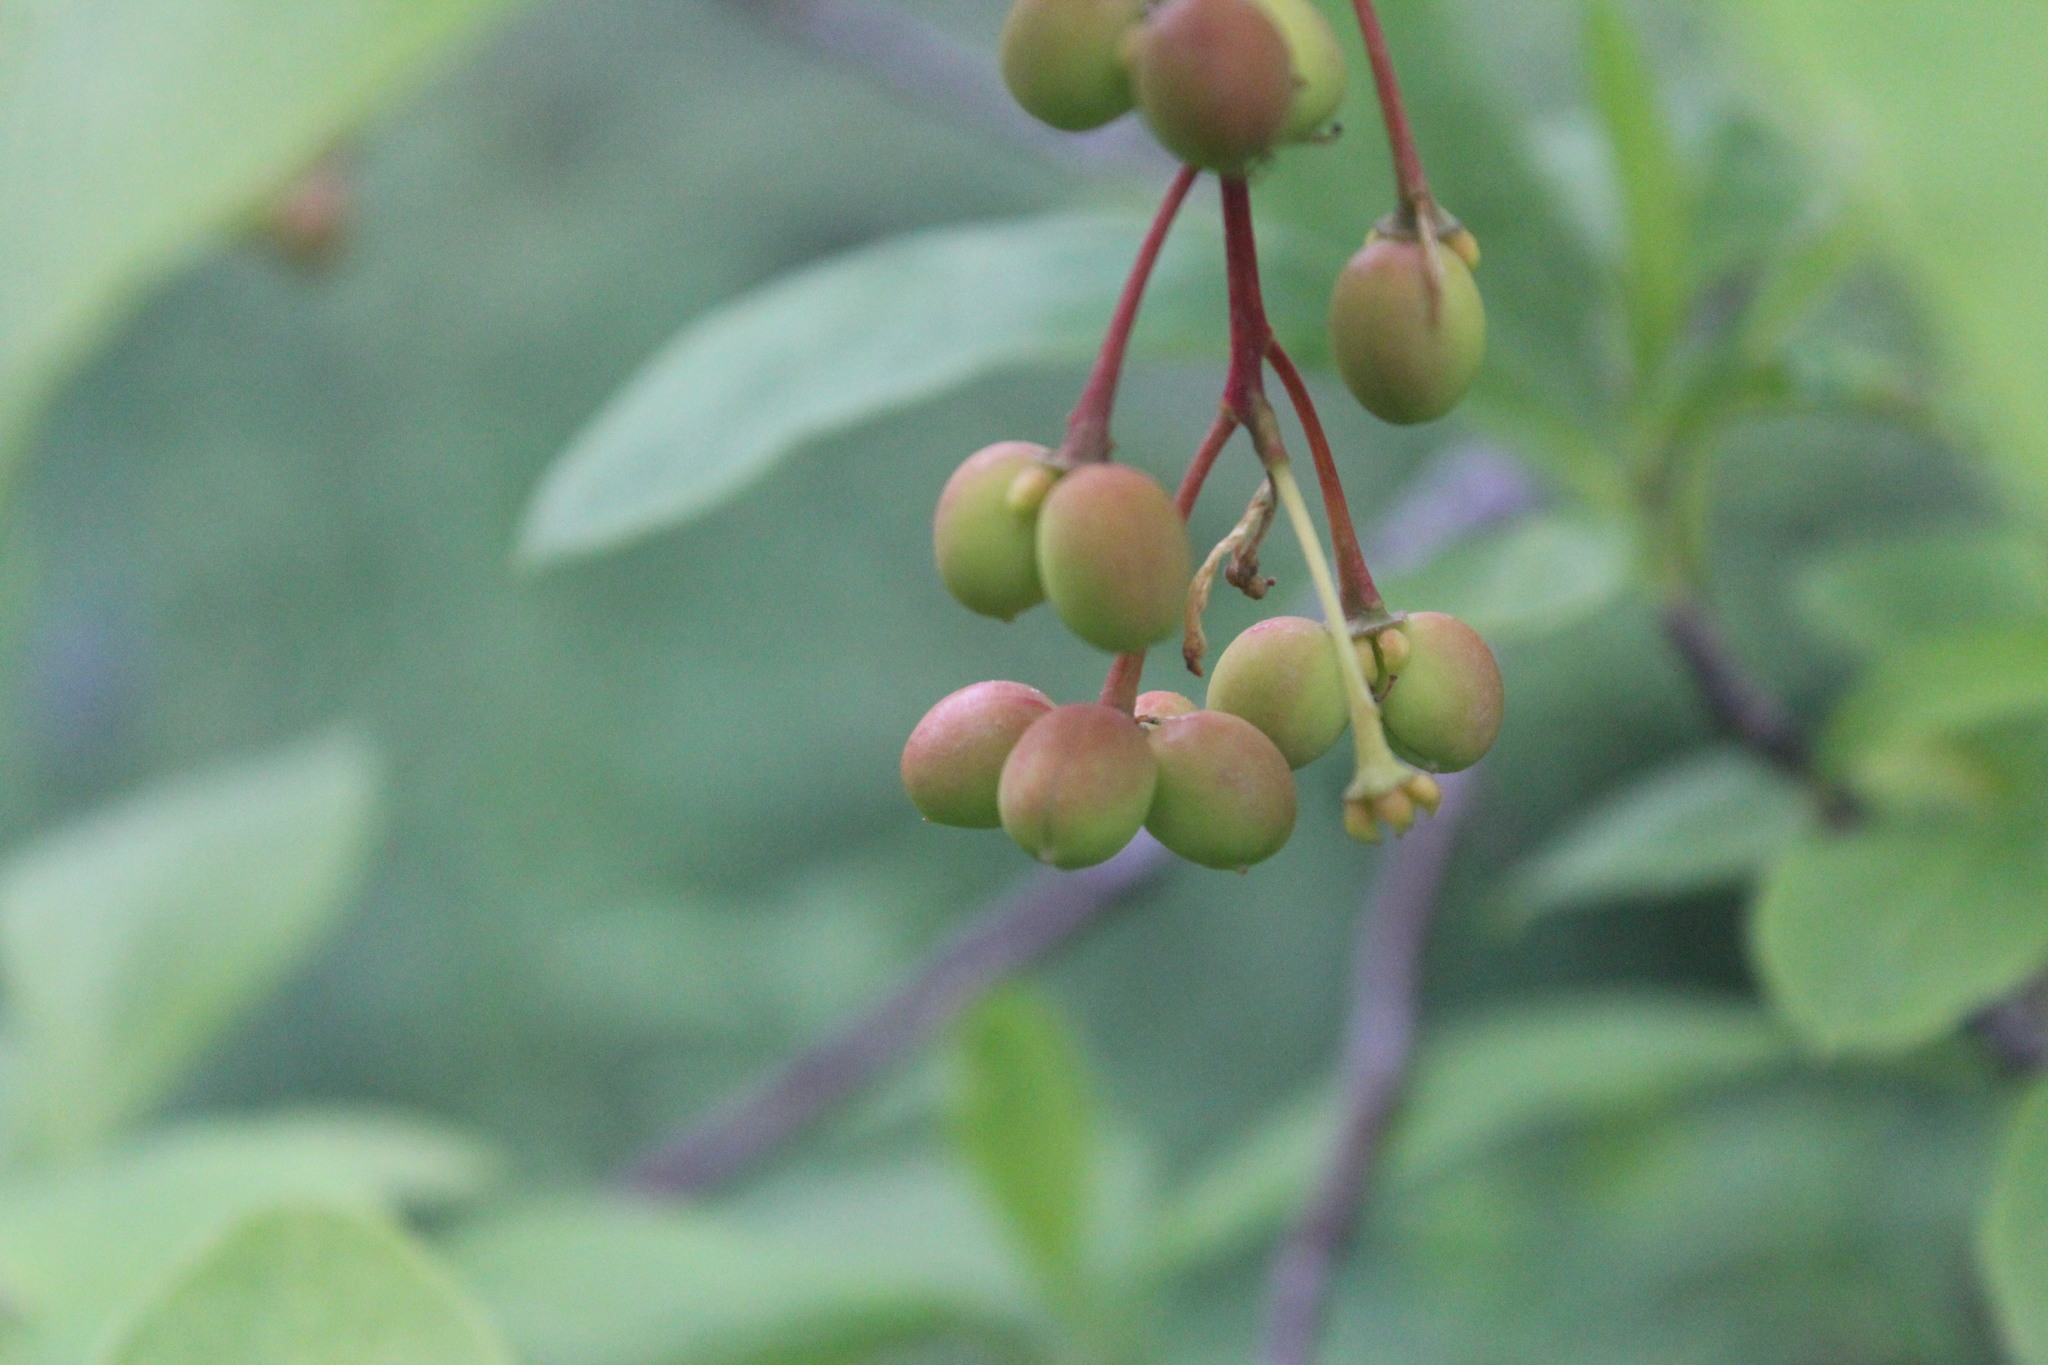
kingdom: Plantae
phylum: Tracheophyta
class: Magnoliopsida
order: Rosales
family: Rosaceae
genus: Oemleria
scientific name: Oemleria cerasiformis
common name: Osoberry
